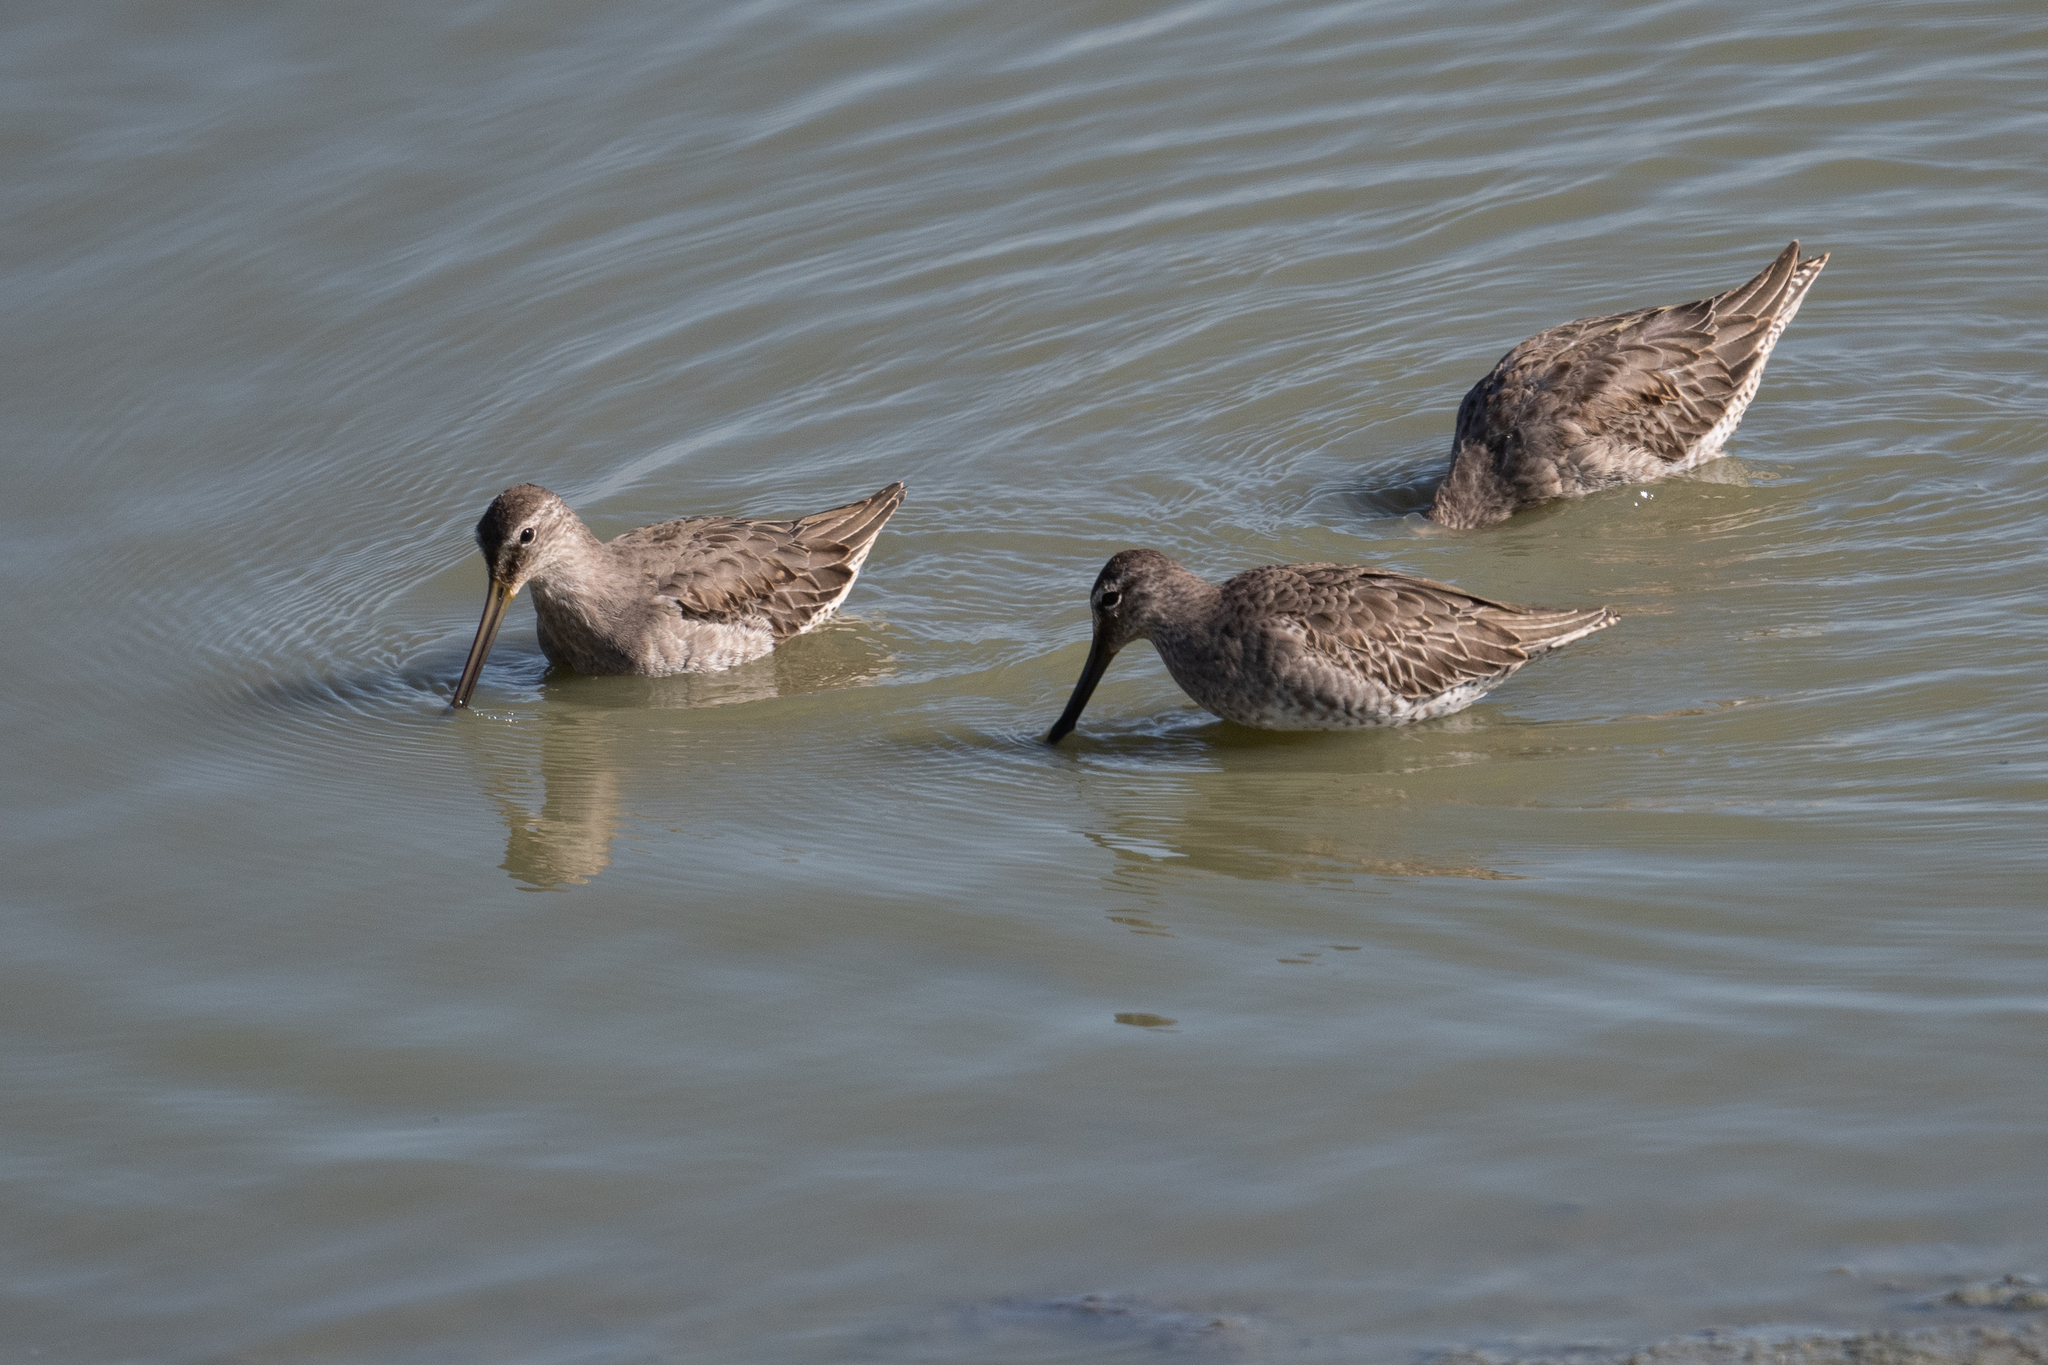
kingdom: Animalia
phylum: Chordata
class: Aves
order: Charadriiformes
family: Scolopacidae
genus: Limnodromus
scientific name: Limnodromus scolopaceus
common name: Long-billed dowitcher
